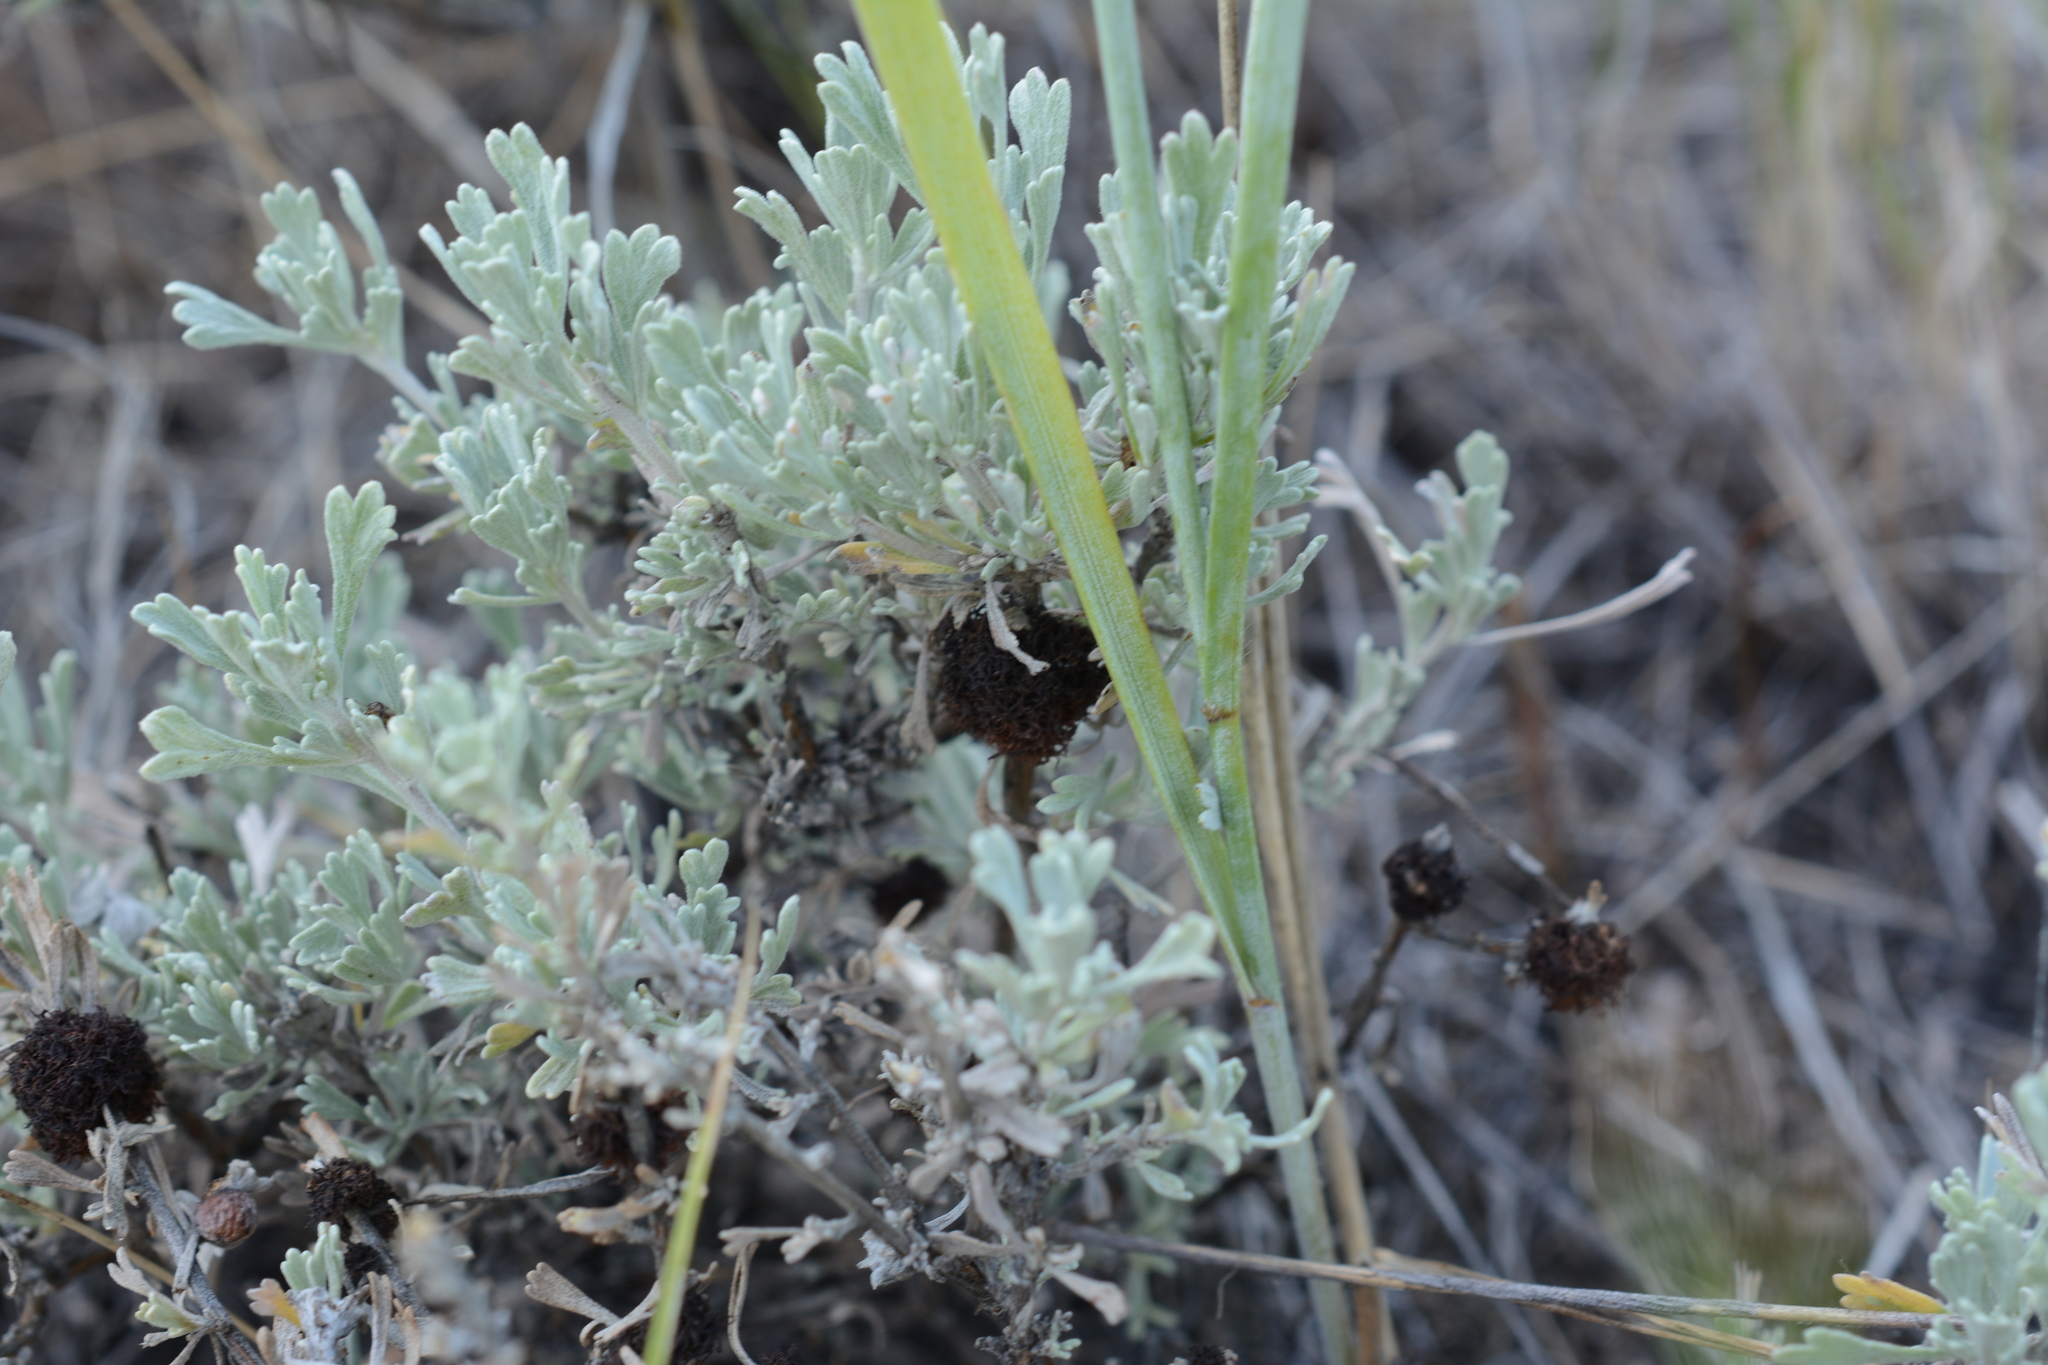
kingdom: Plantae
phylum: Tracheophyta
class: Magnoliopsida
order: Asterales
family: Asteraceae
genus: Artemisia
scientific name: Artemisia tridentata
